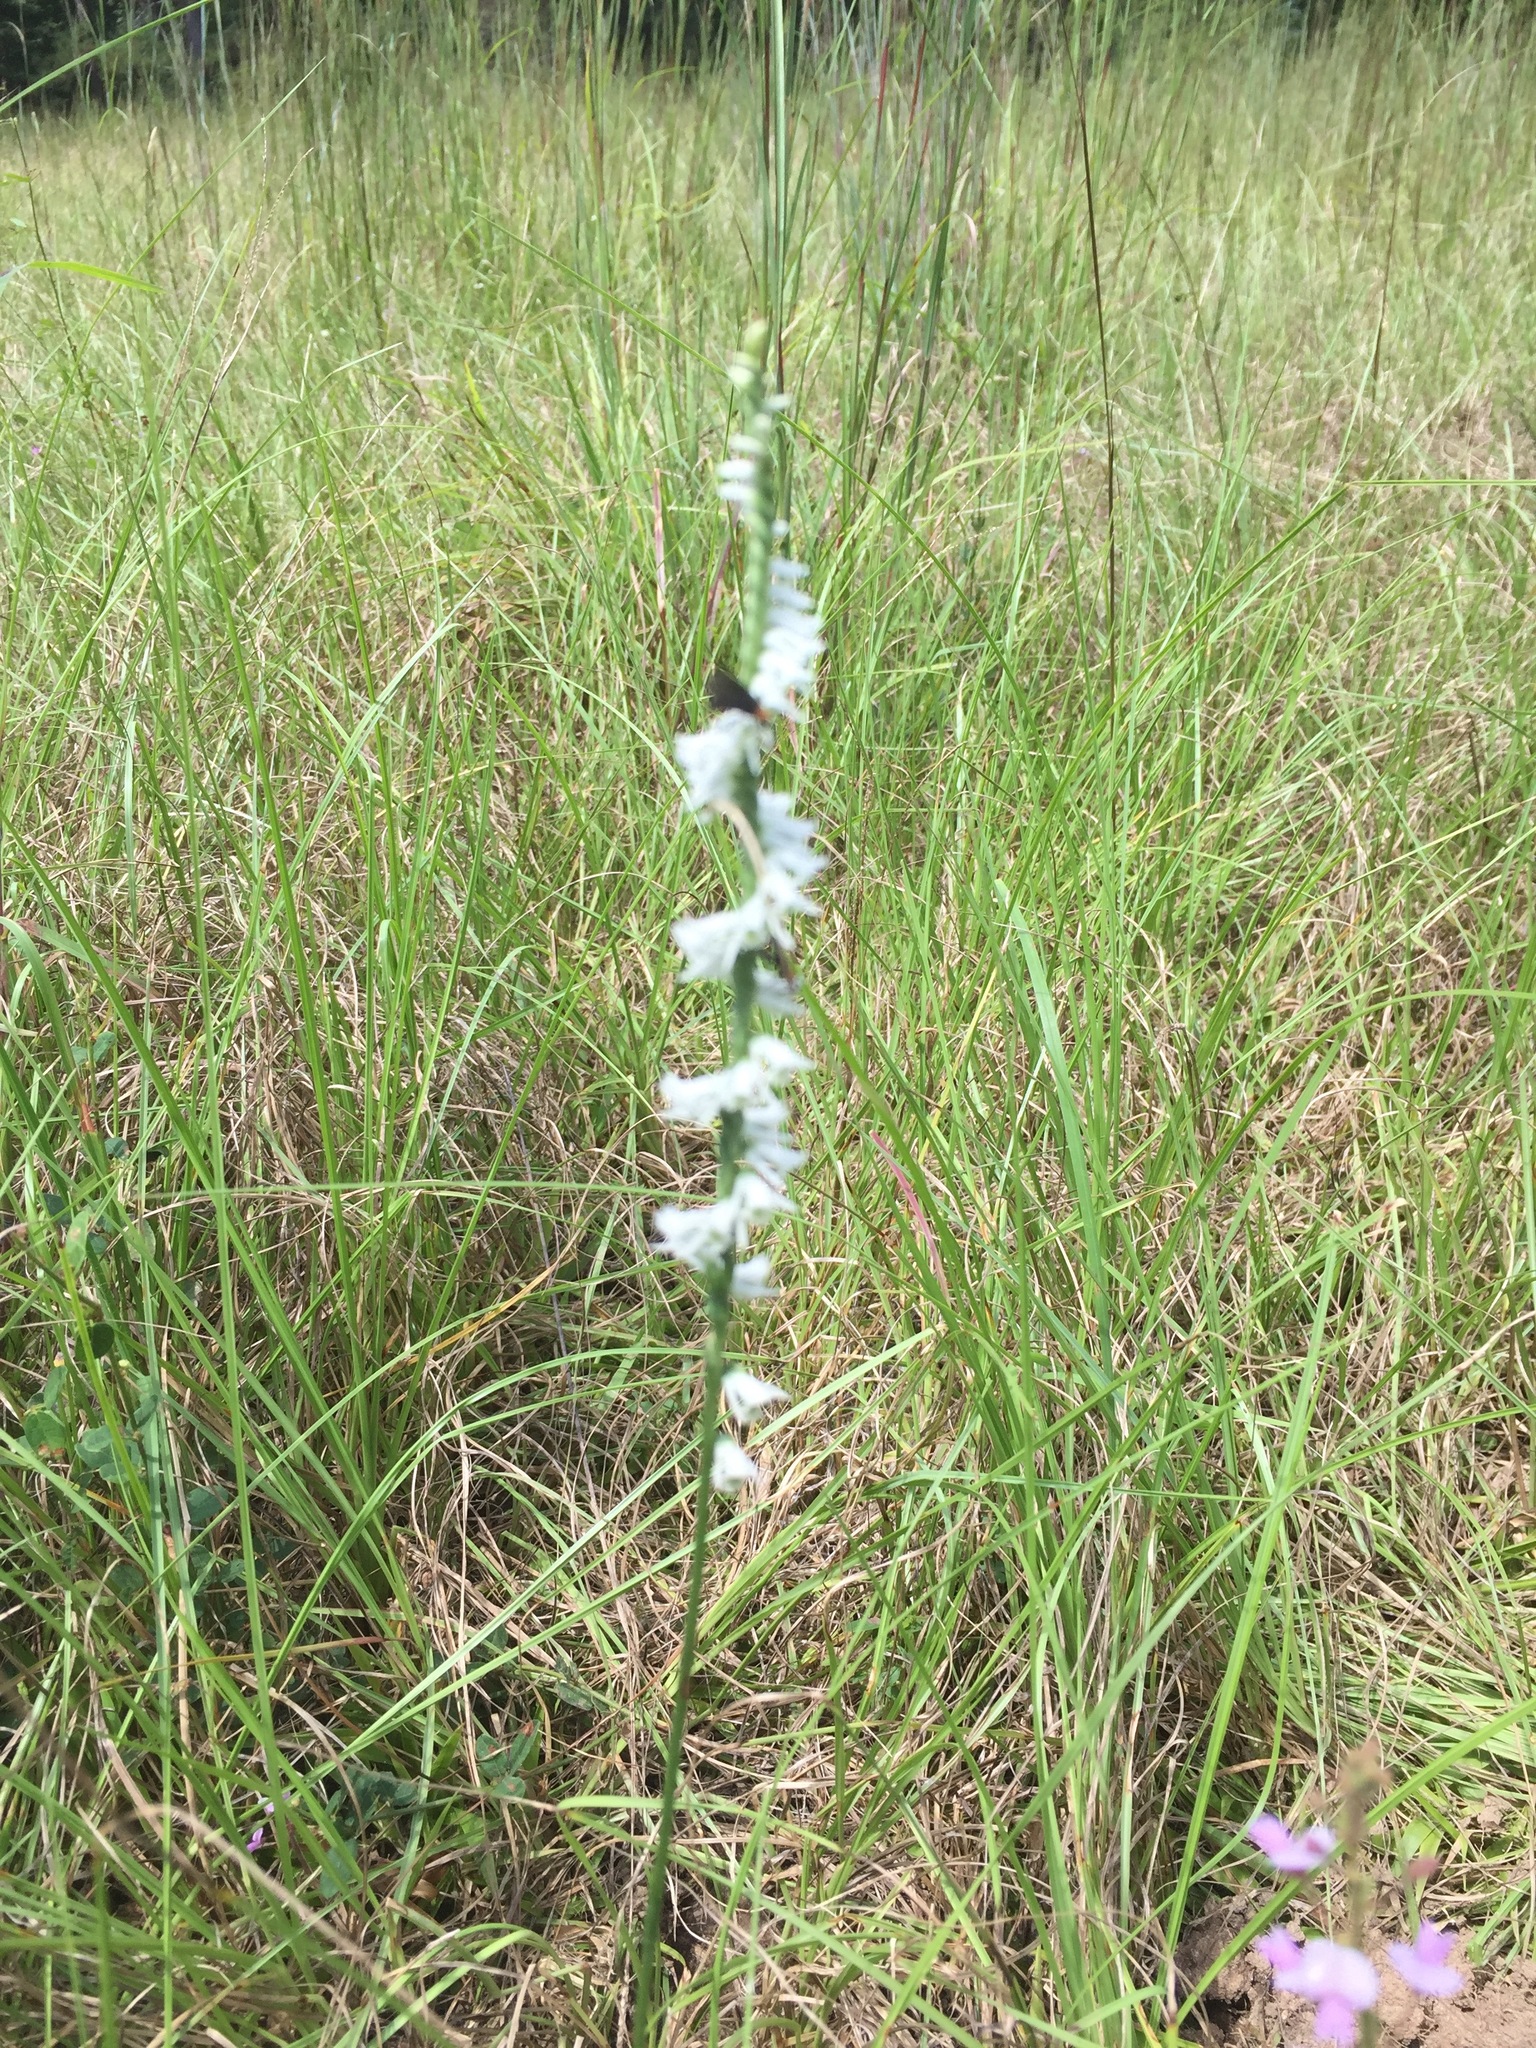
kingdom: Plantae
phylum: Tracheophyta
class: Liliopsida
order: Asparagales
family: Orchidaceae
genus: Spiranthes
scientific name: Spiranthes lacera
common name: Northern slender ladies'-tresses
